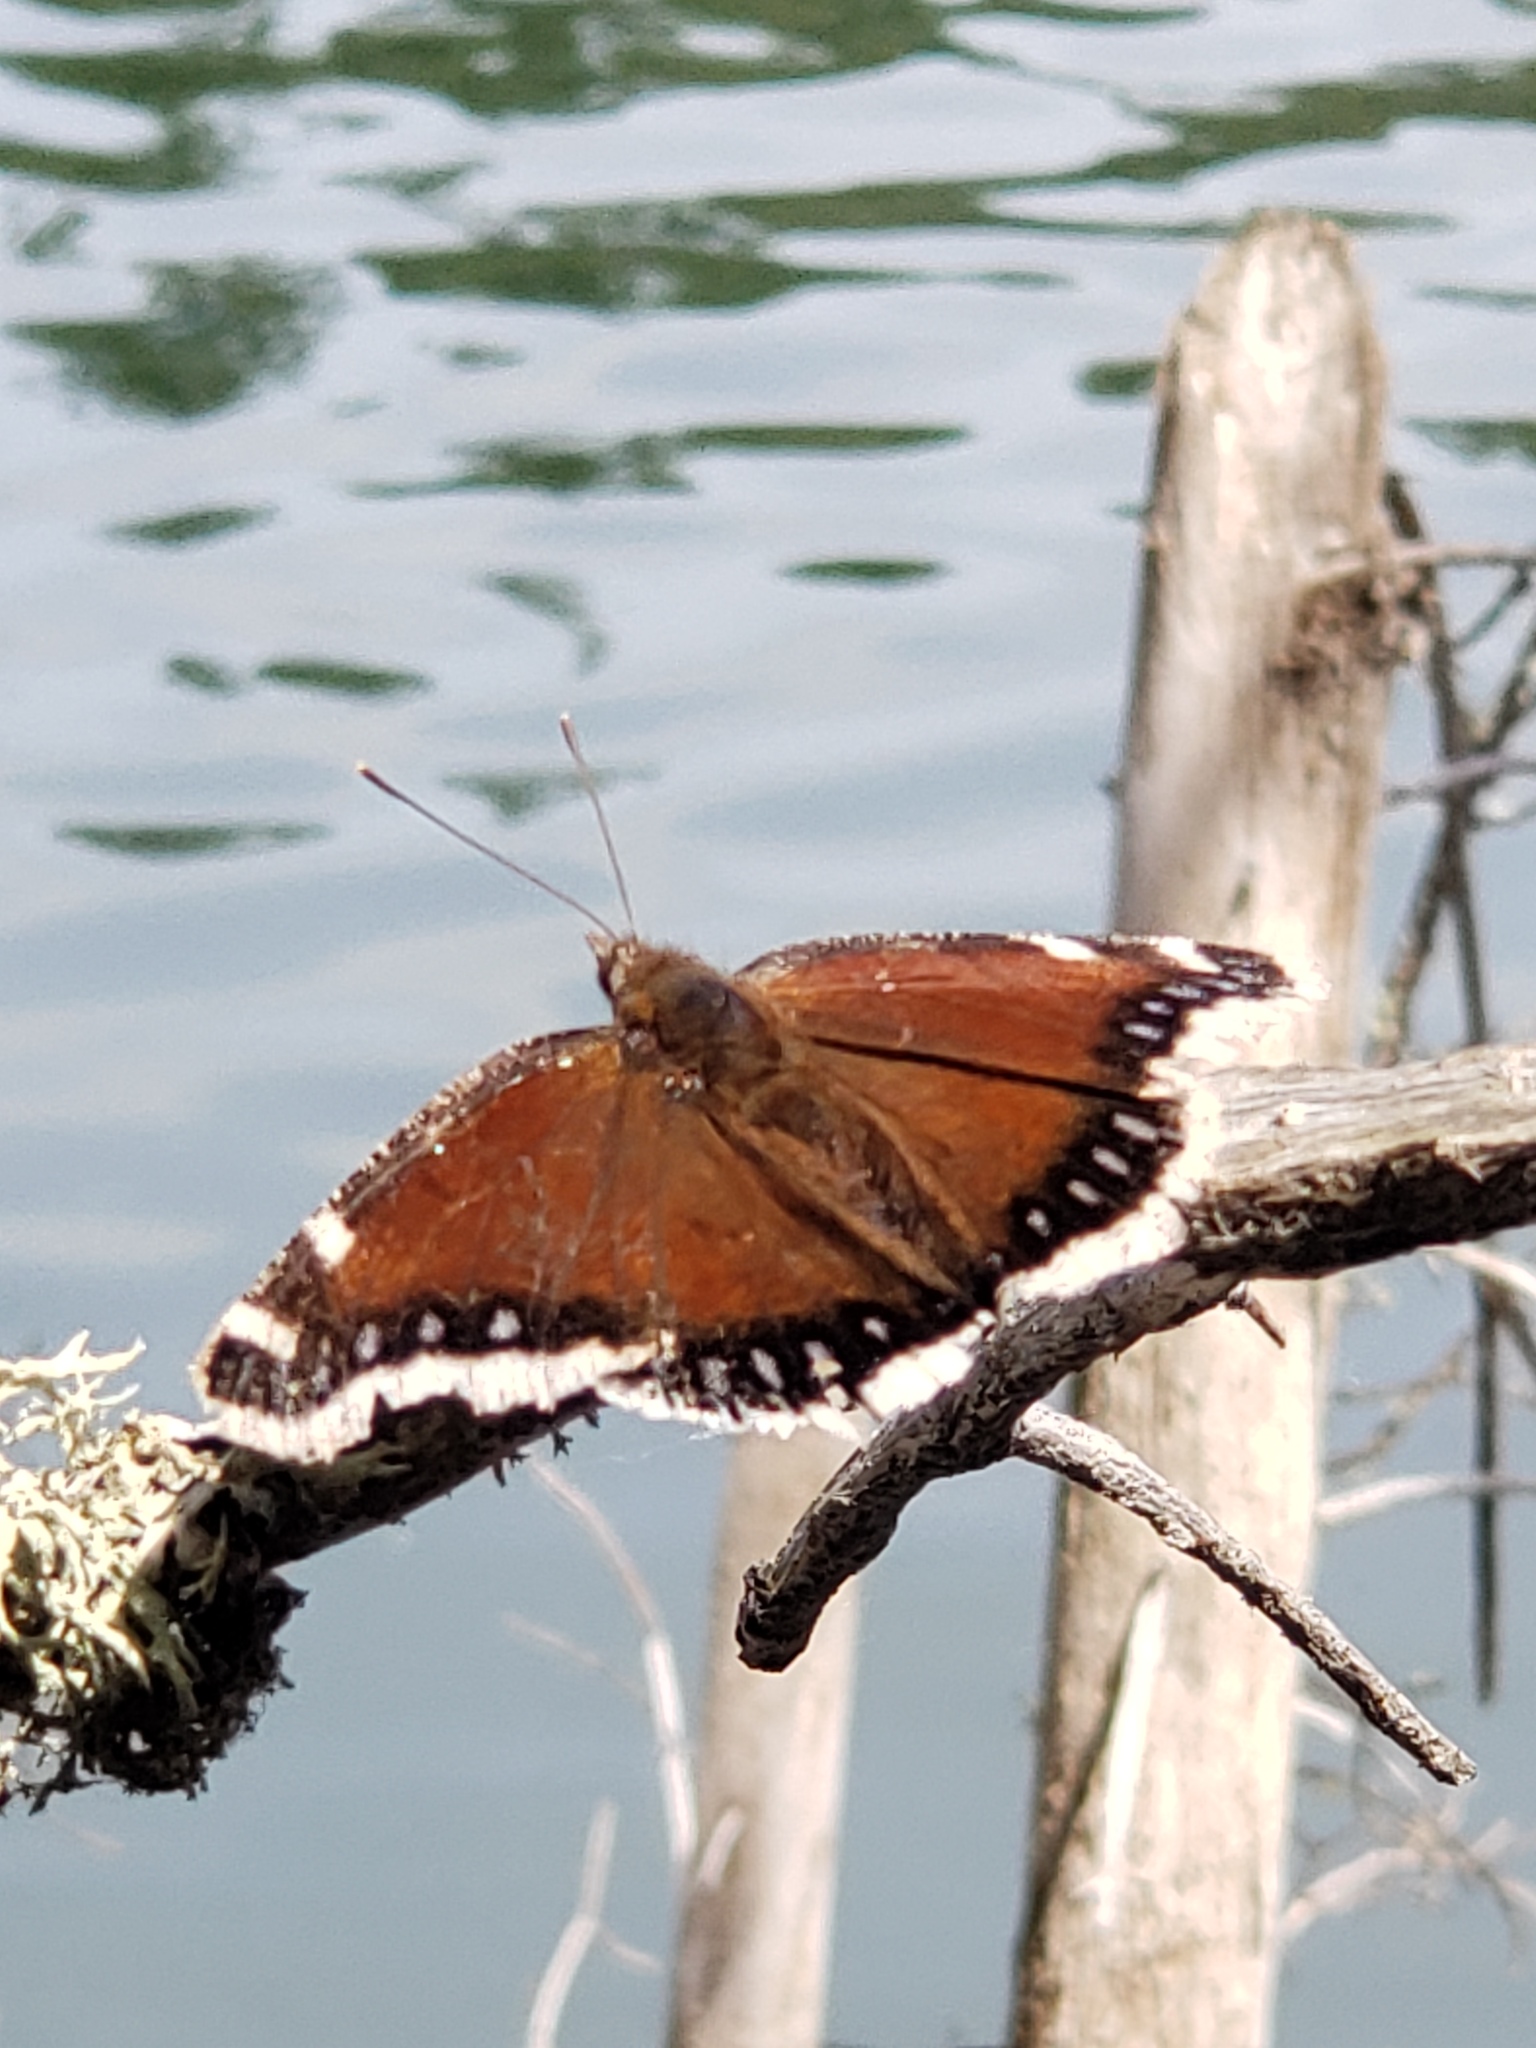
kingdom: Animalia
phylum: Arthropoda
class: Insecta
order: Lepidoptera
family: Nymphalidae
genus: Nymphalis
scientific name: Nymphalis antiopa
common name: Camberwell beauty
